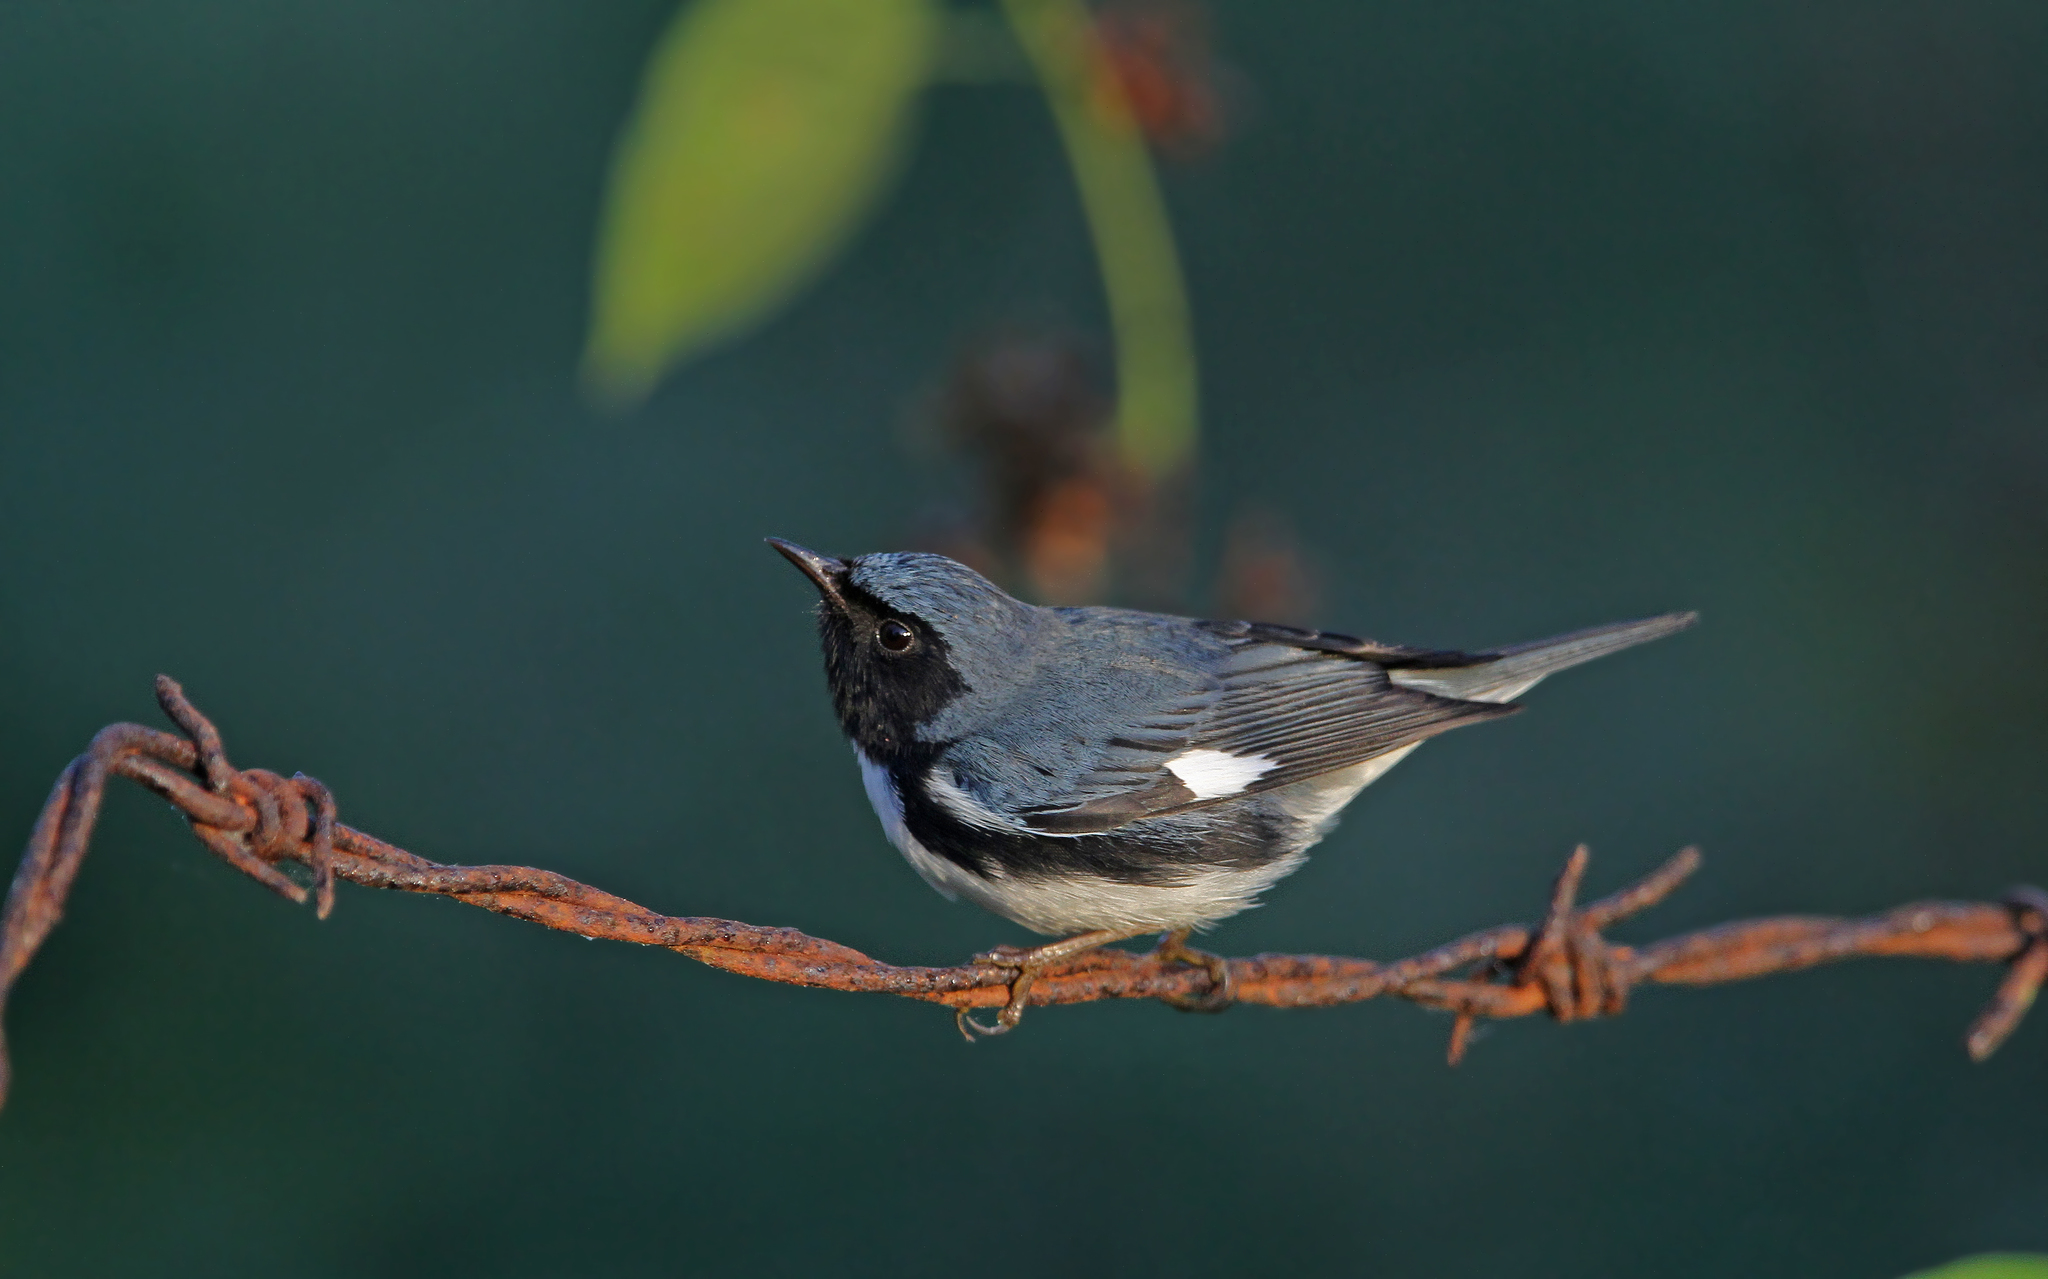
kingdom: Animalia
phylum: Chordata
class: Aves
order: Passeriformes
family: Parulidae
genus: Setophaga
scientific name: Setophaga caerulescens
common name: Black-throated blue warbler
